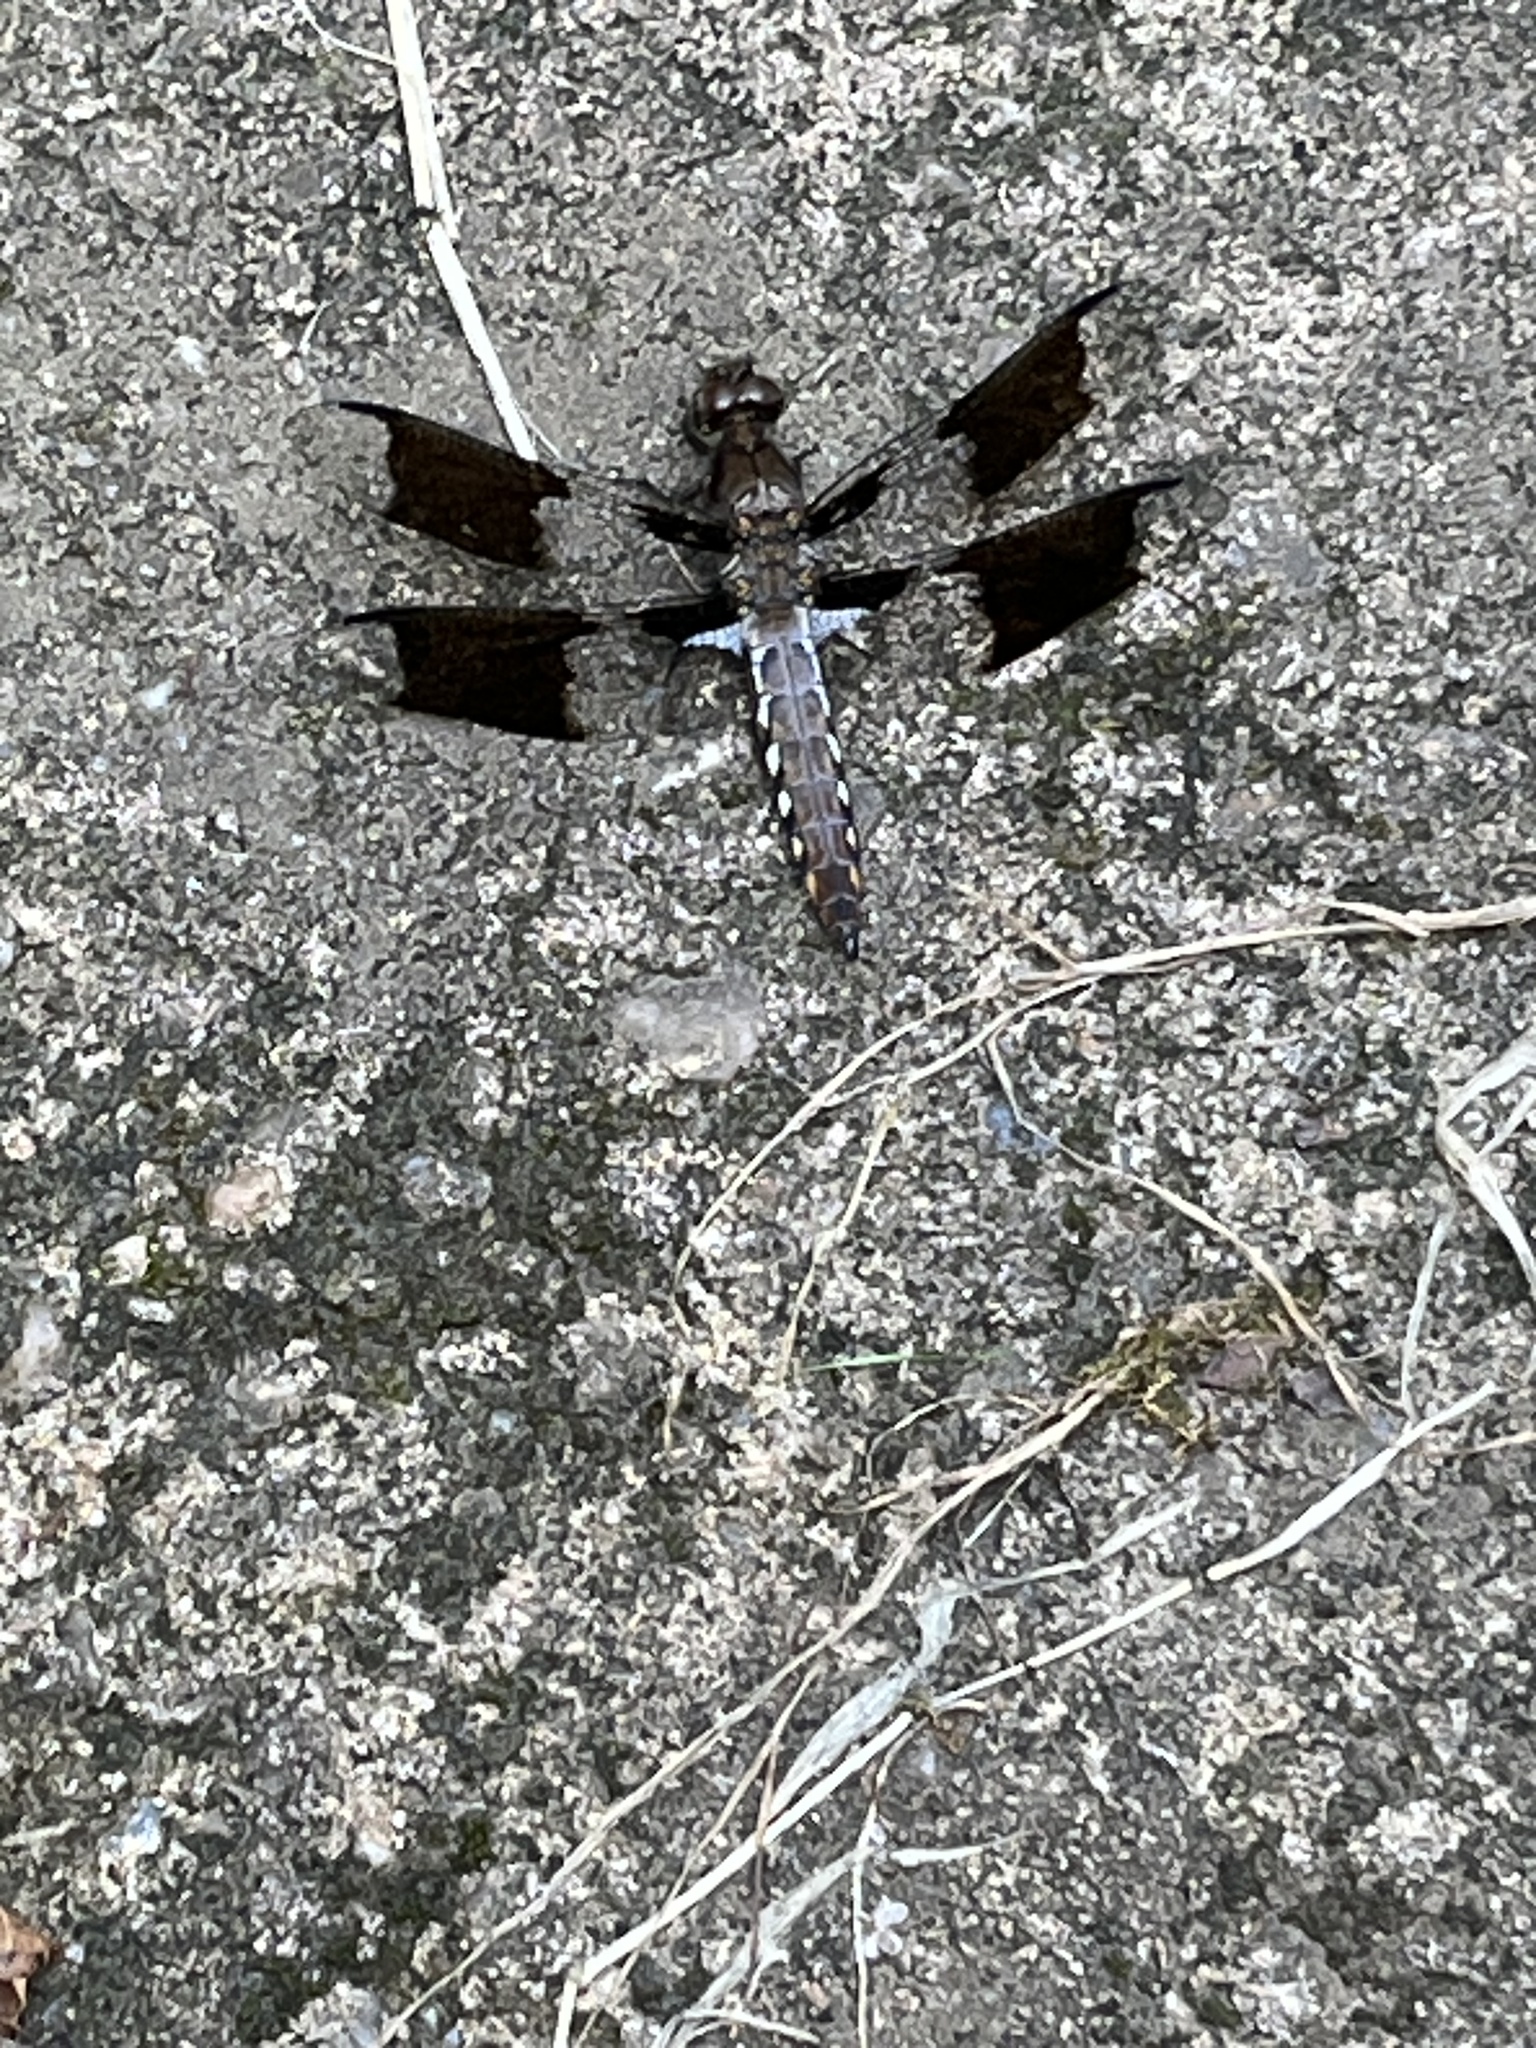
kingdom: Animalia
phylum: Arthropoda
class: Insecta
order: Odonata
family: Libellulidae
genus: Plathemis
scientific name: Plathemis lydia
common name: Common whitetail
